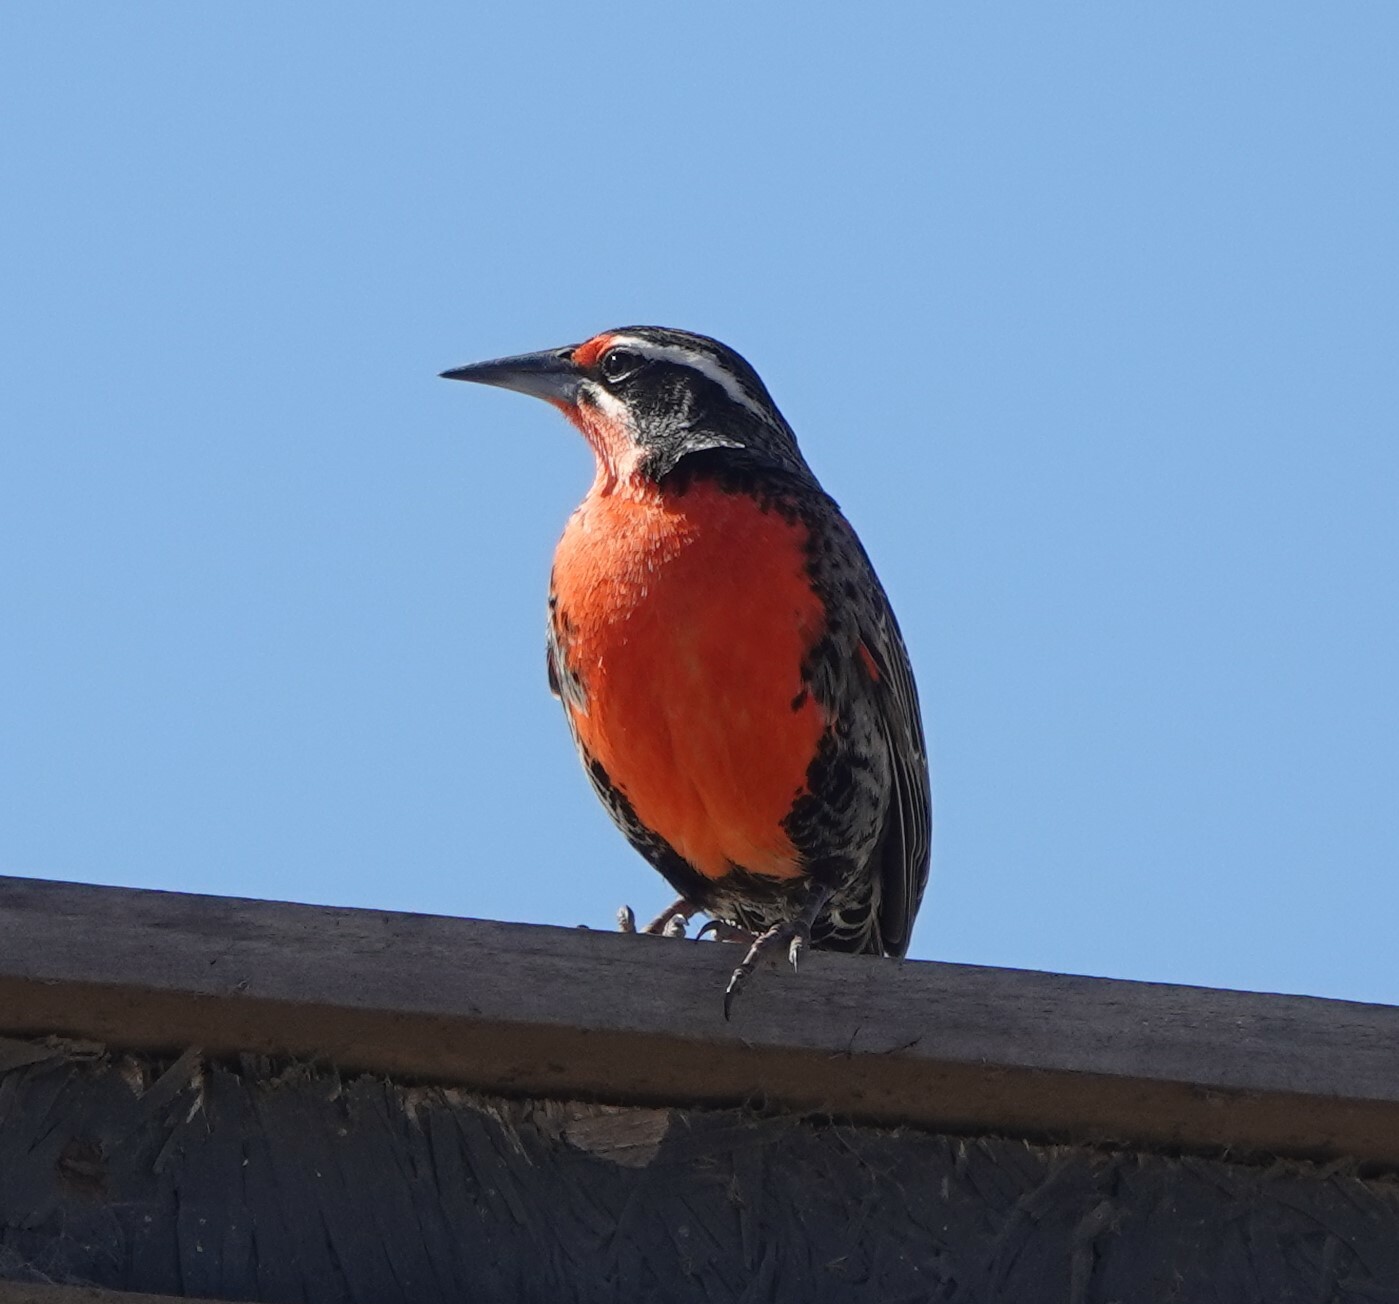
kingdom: Animalia
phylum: Chordata
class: Aves
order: Passeriformes
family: Icteridae
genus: Sturnella
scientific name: Sturnella loyca
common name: Long-tailed meadowlark
